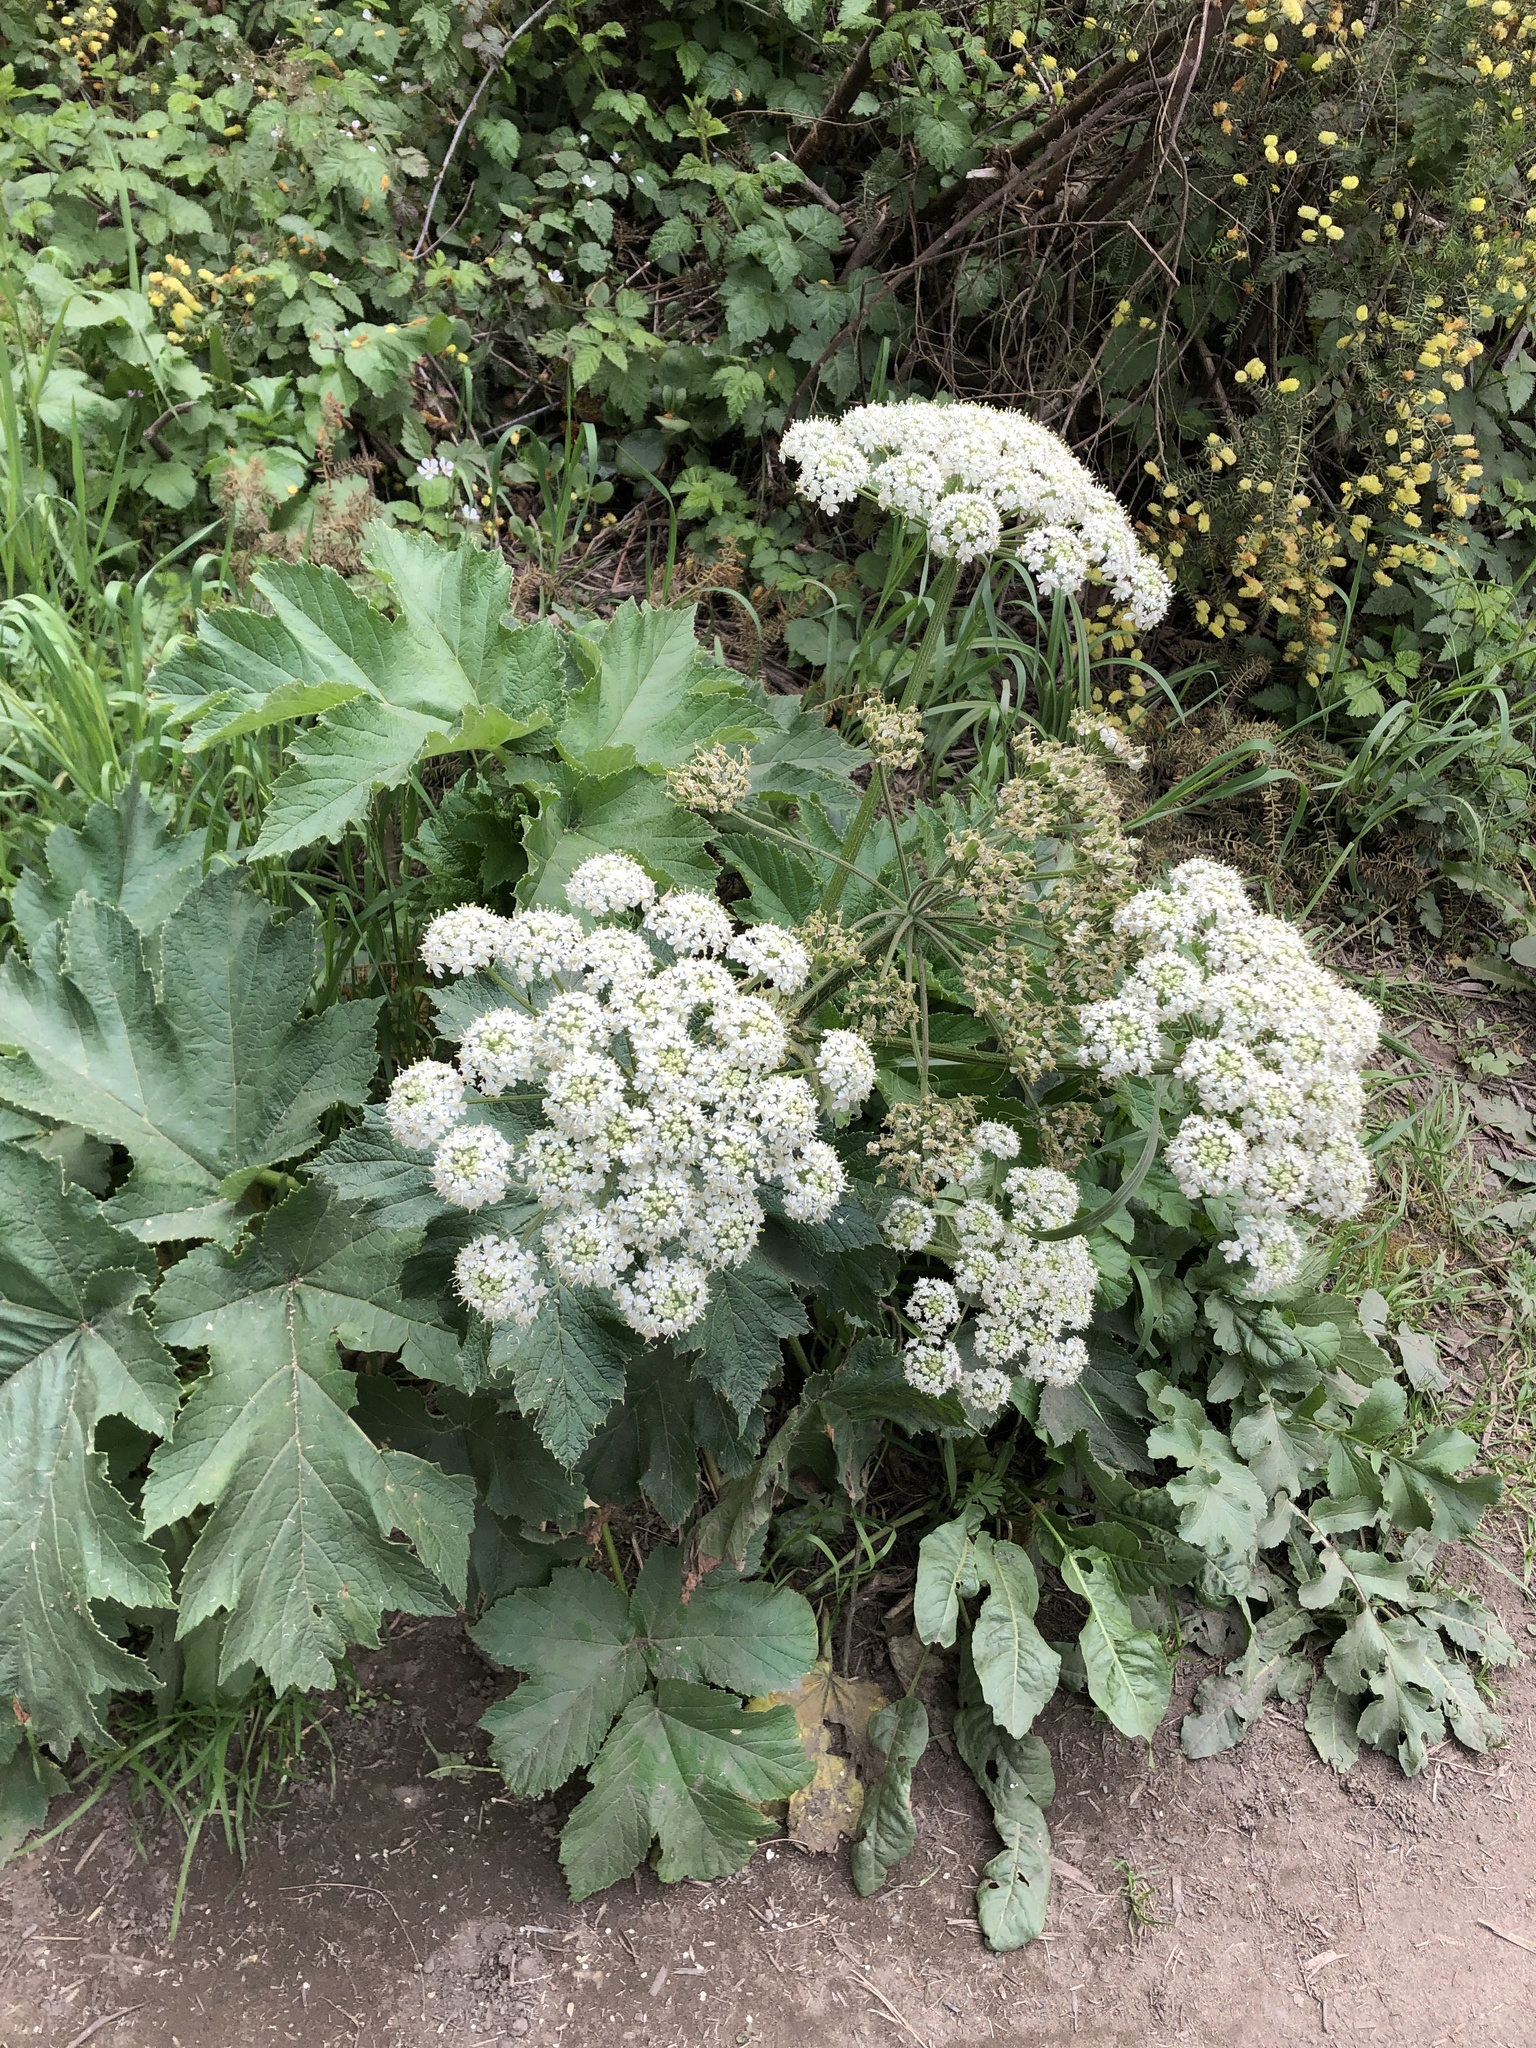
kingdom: Plantae
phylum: Tracheophyta
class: Magnoliopsida
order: Apiales
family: Apiaceae
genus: Heracleum
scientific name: Heracleum maximum
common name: American cow parsnip
